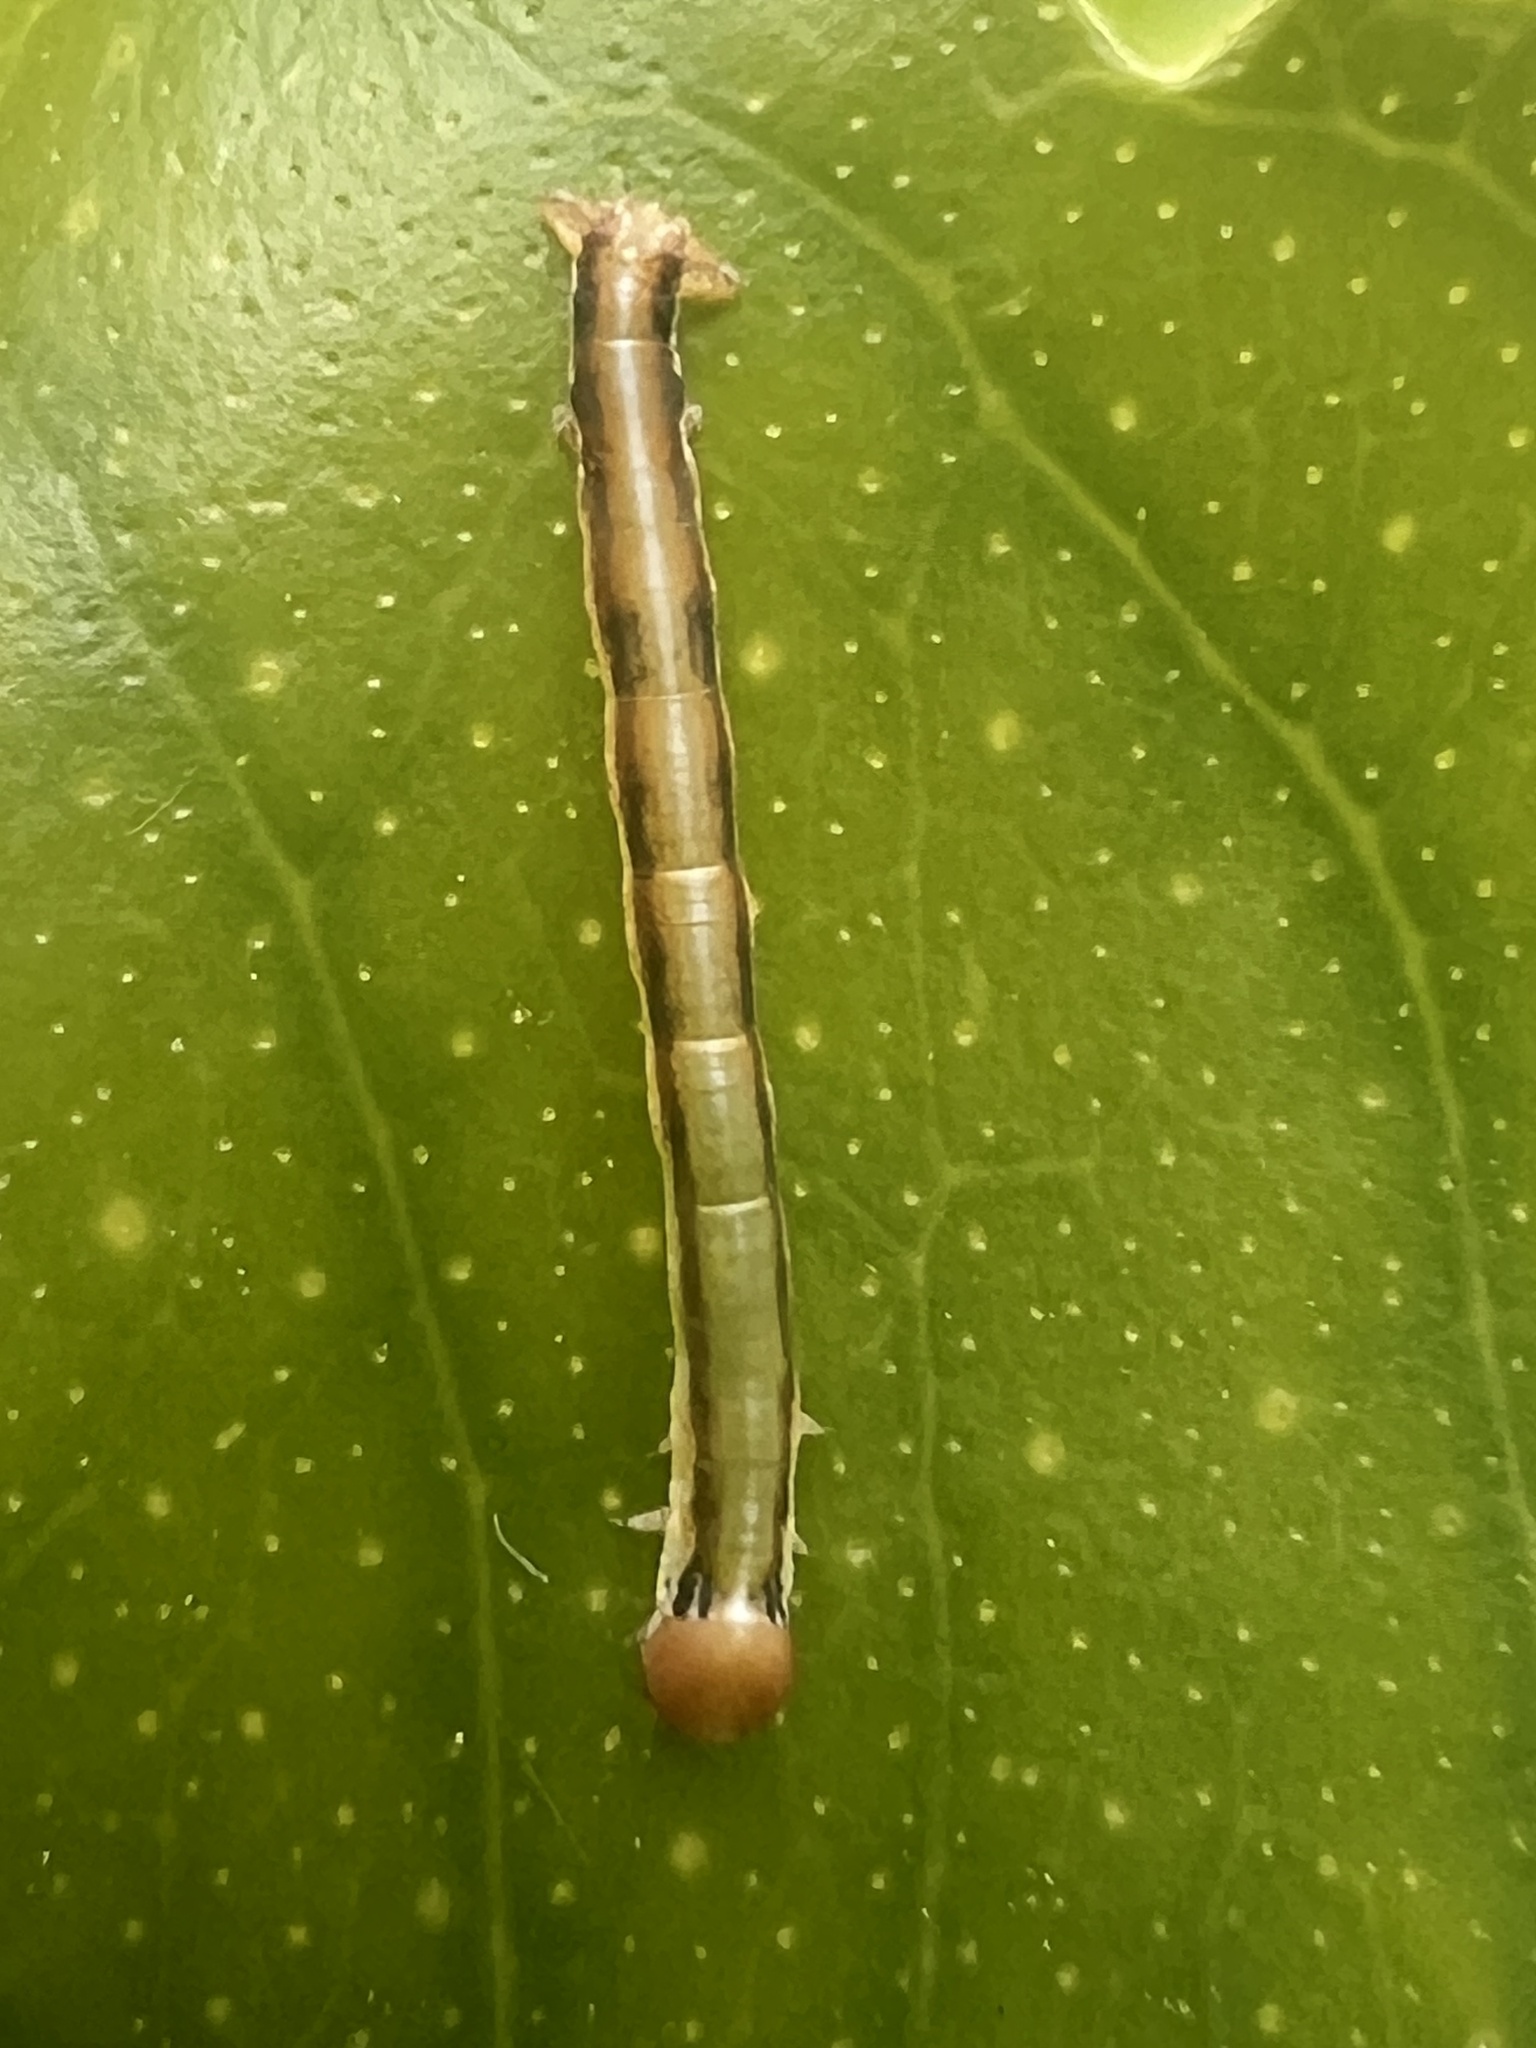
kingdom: Animalia
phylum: Arthropoda
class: Insecta
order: Lepidoptera
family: Geometridae
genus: Cleora
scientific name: Cleora scriptaria
